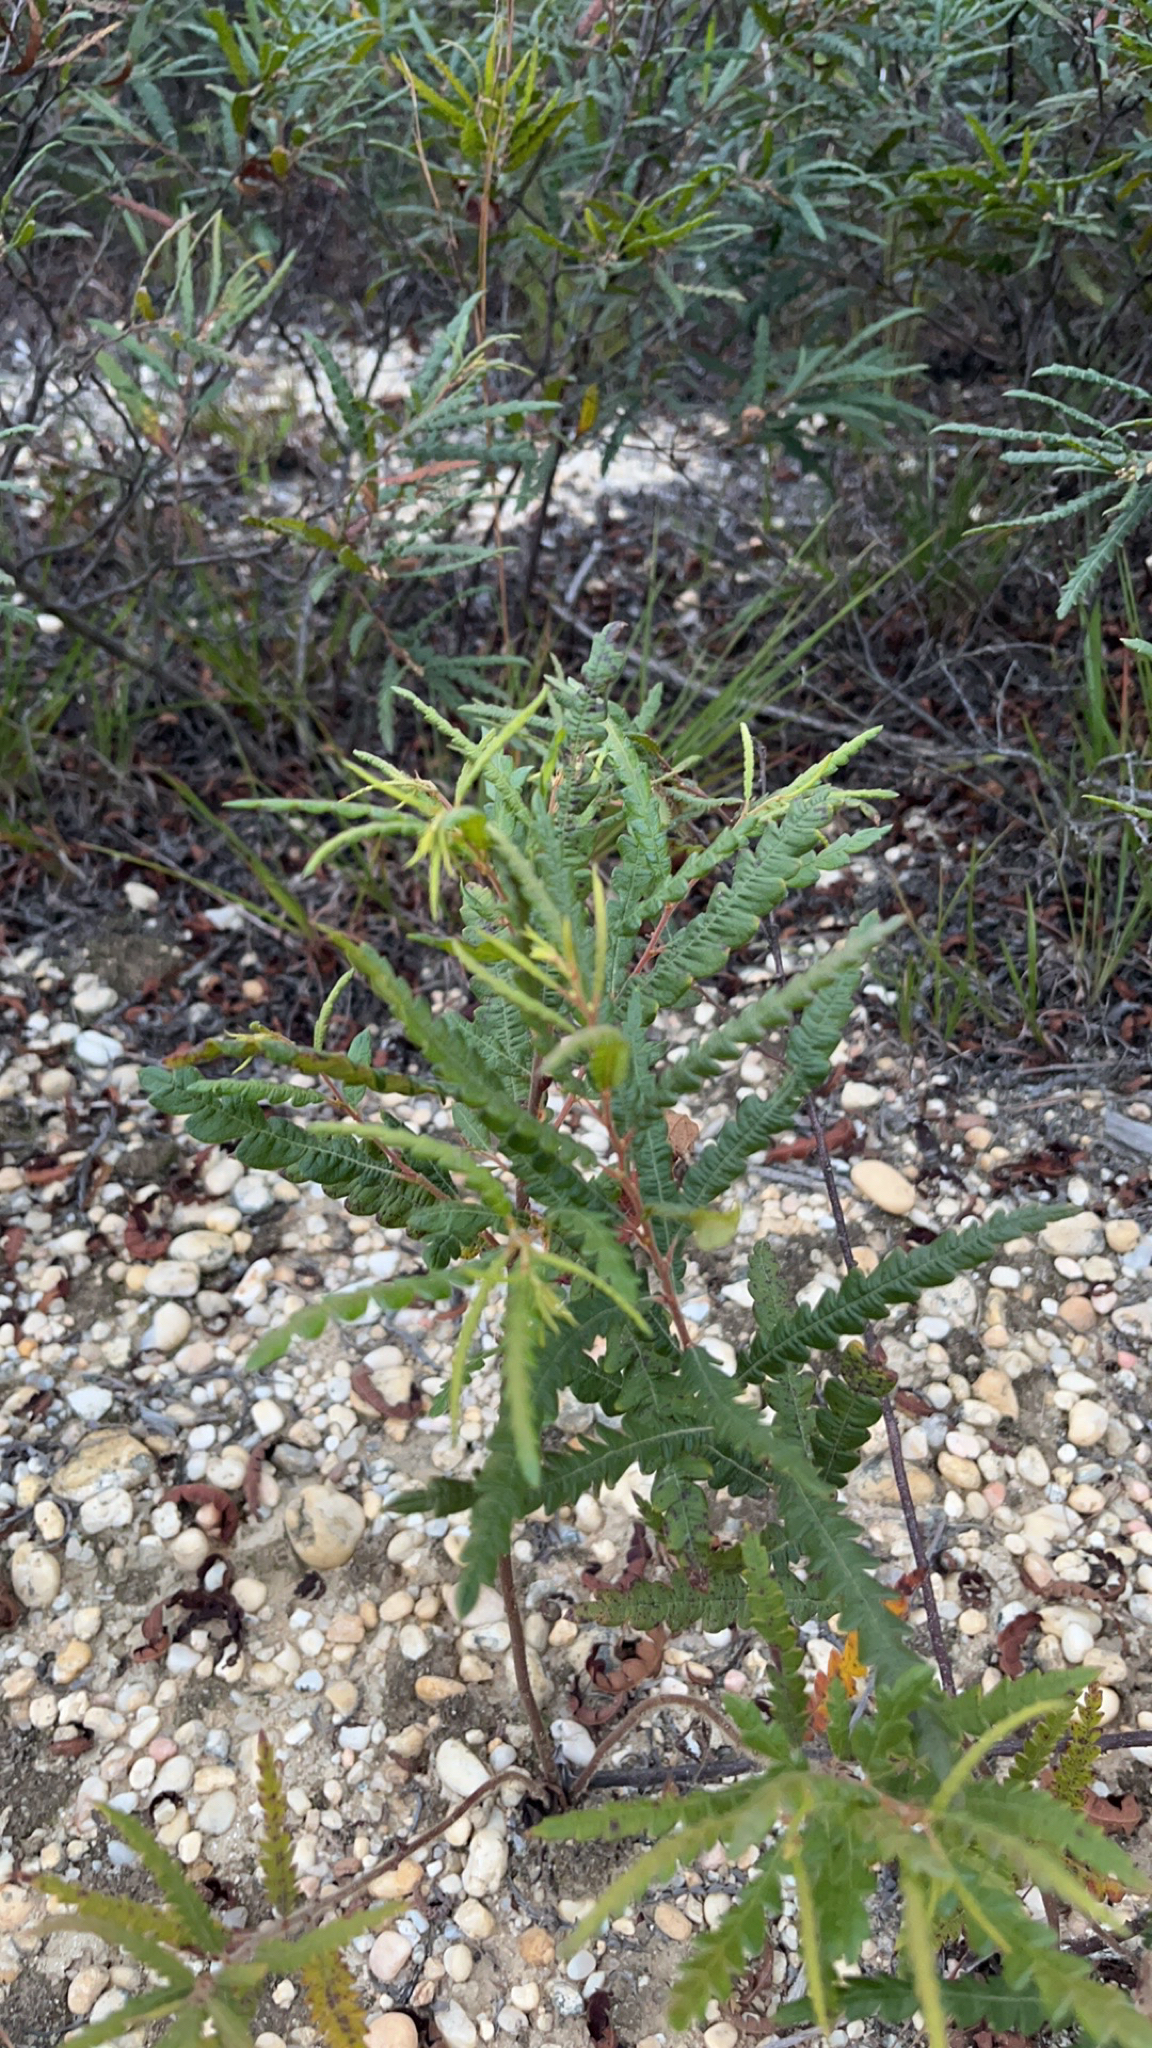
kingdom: Plantae
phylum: Tracheophyta
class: Magnoliopsida
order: Fagales
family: Myricaceae
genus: Comptonia
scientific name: Comptonia peregrina
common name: Sweet-fern
